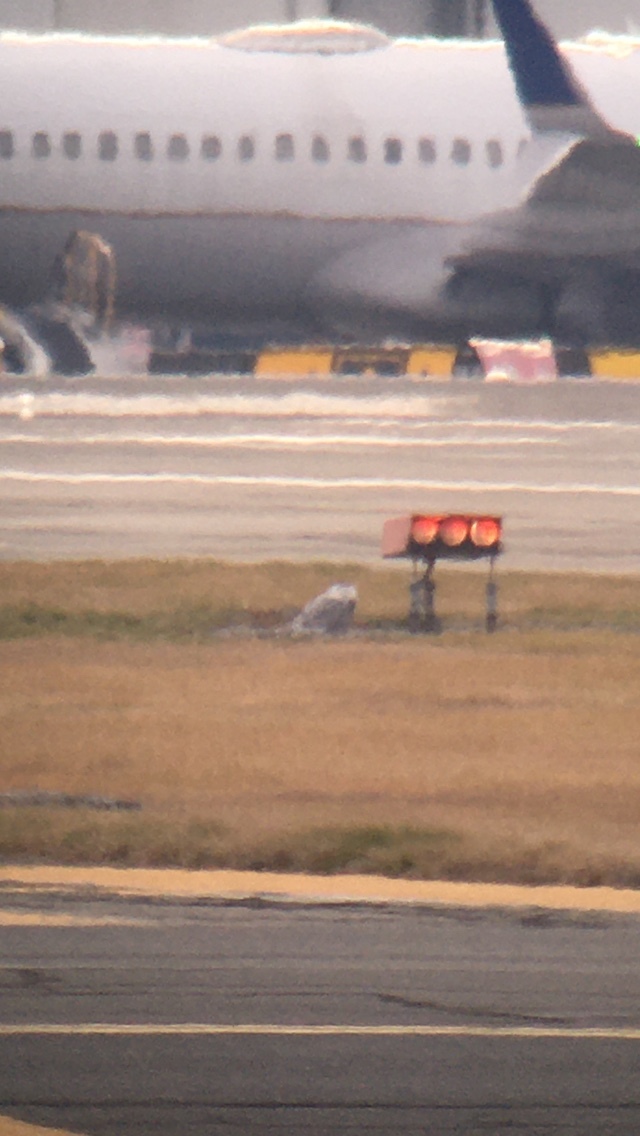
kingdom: Animalia
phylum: Chordata
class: Aves
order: Strigiformes
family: Strigidae
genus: Bubo
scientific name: Bubo scandiacus
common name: Snowy owl
